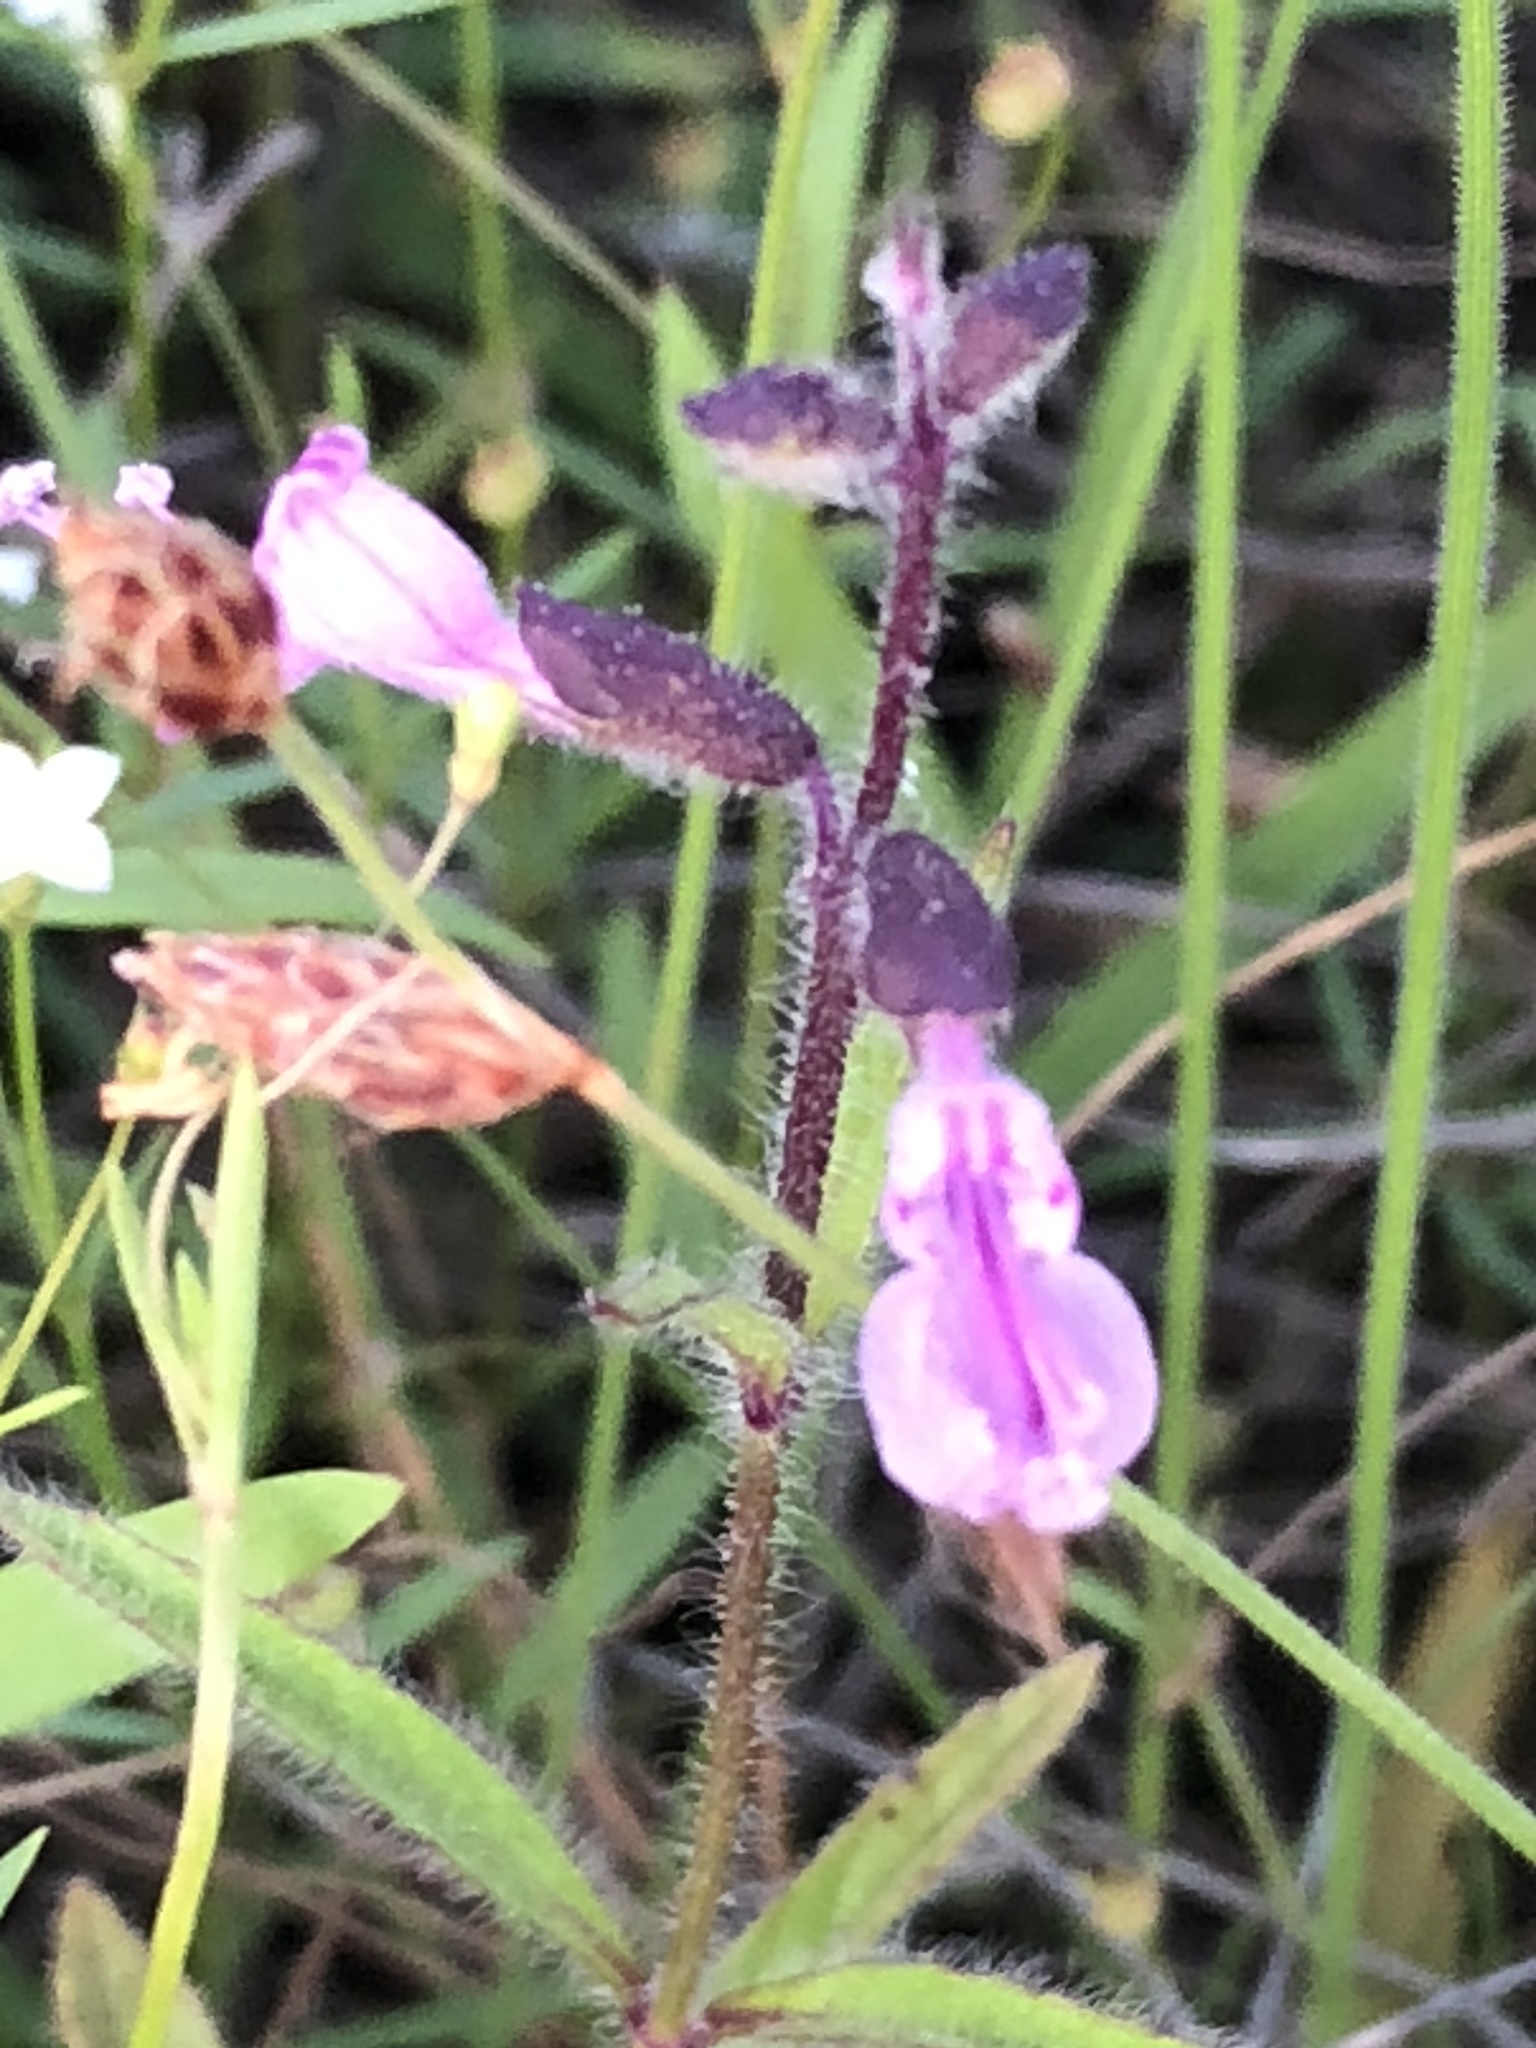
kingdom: Plantae
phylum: Tracheophyta
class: Magnoliopsida
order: Lamiales
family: Lamiaceae
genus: Syncolostemon
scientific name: Syncolostemon canescens
